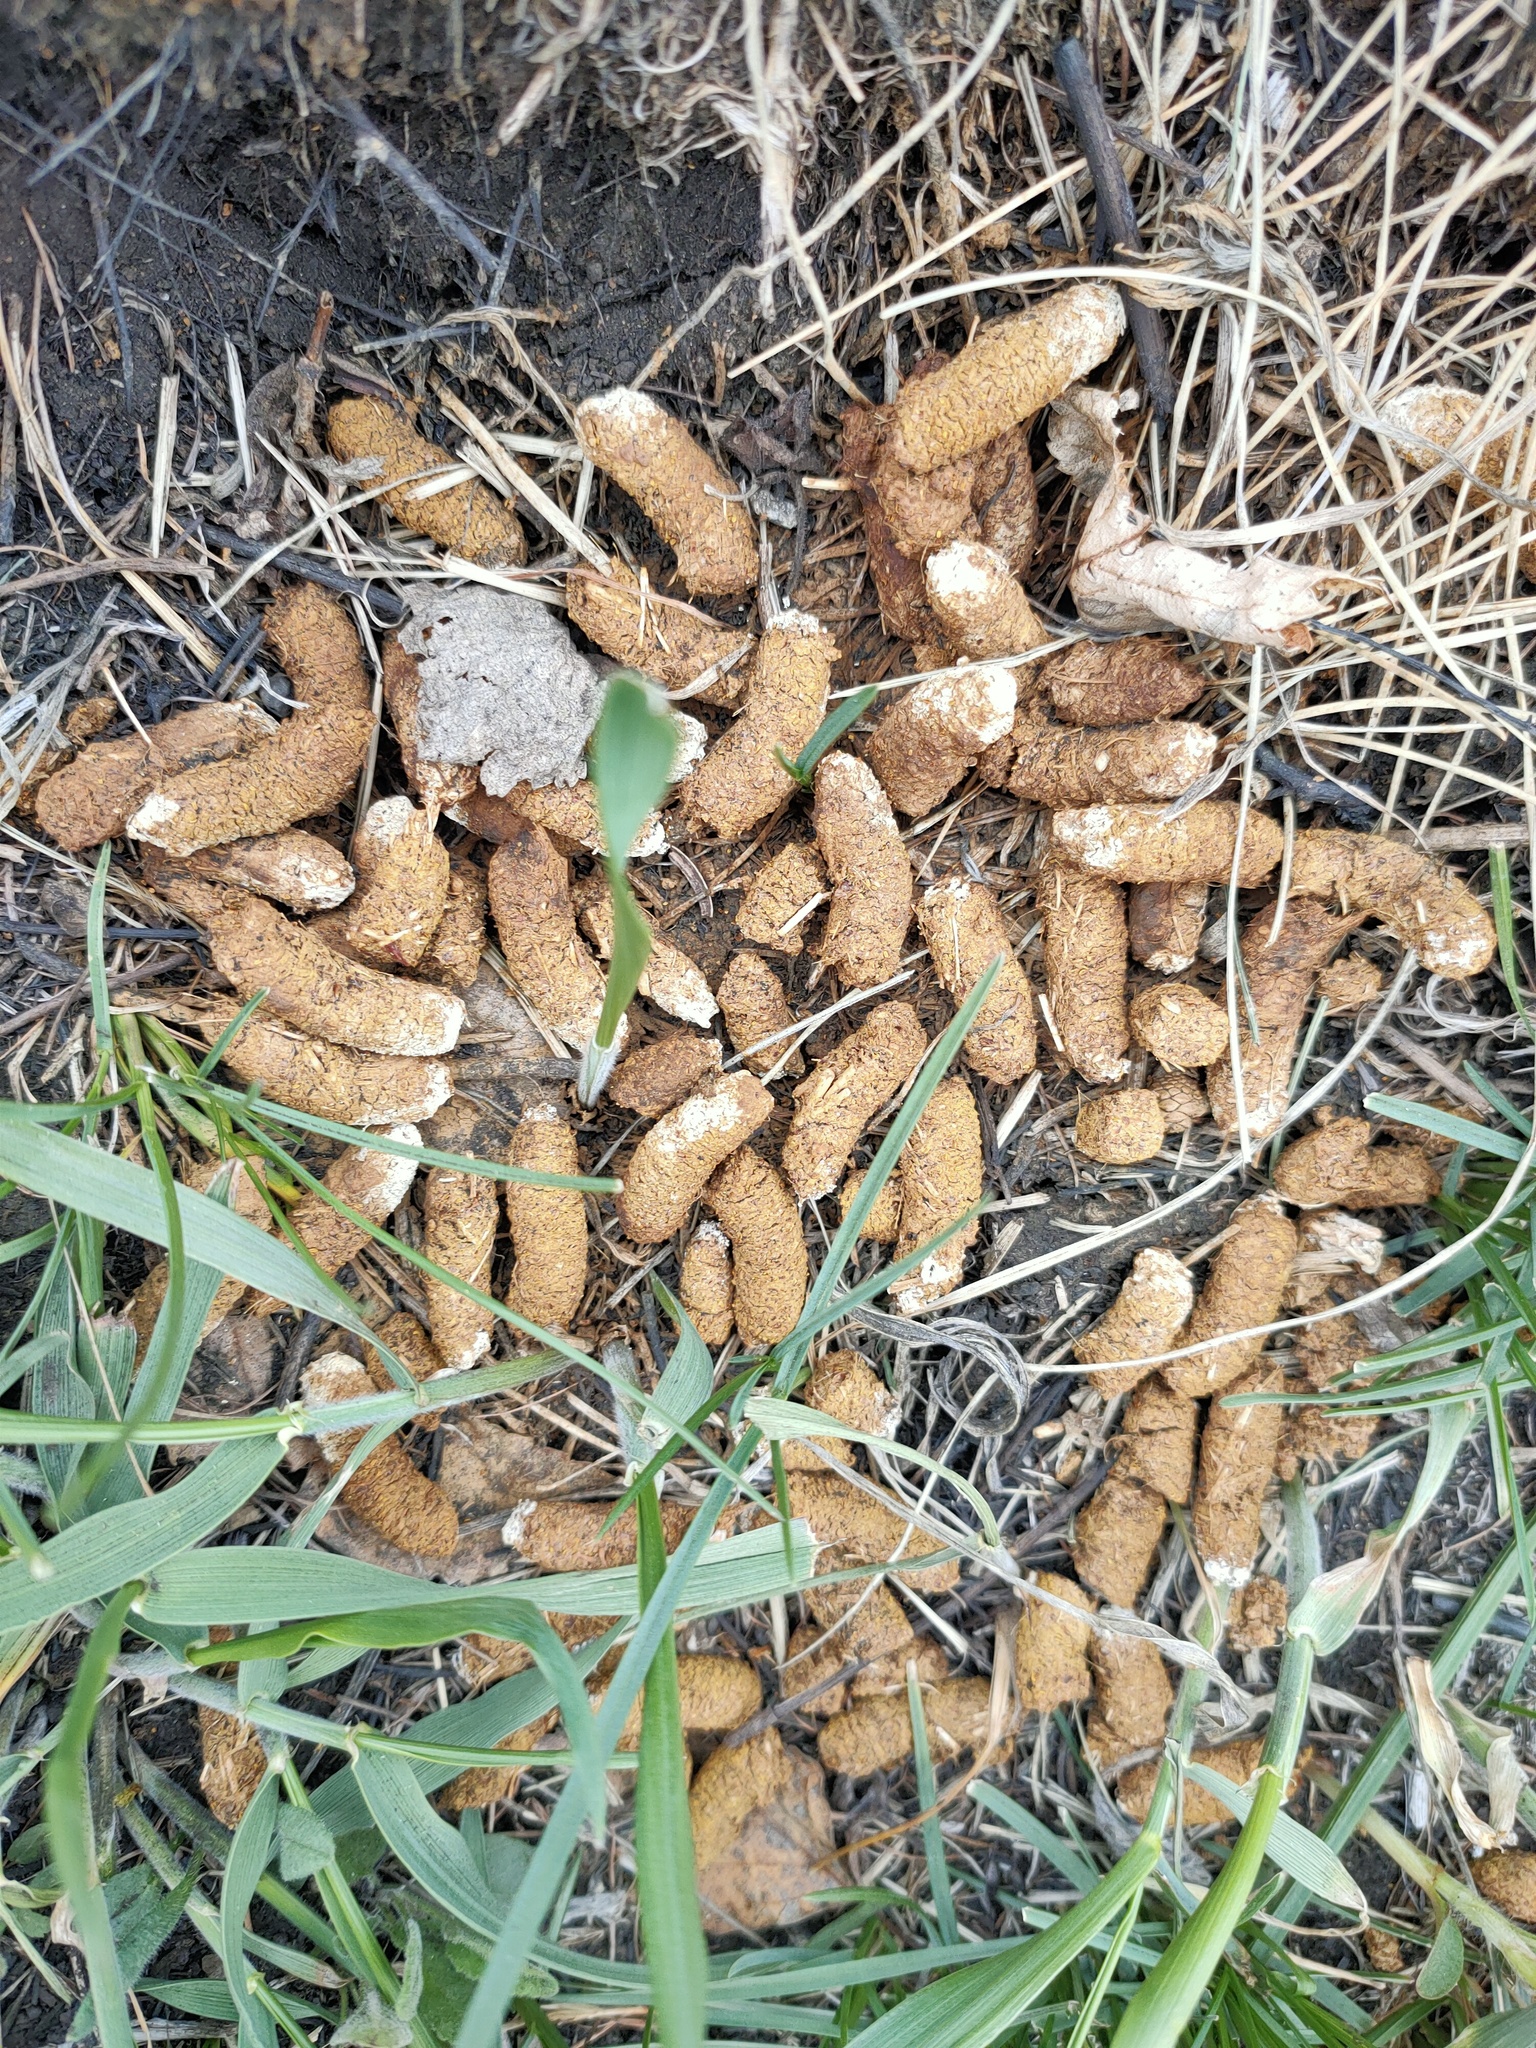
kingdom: Animalia
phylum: Chordata
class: Aves
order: Galliformes
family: Phasianidae
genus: Tetrastes
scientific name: Tetrastes bonasia
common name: Hazel grouse
